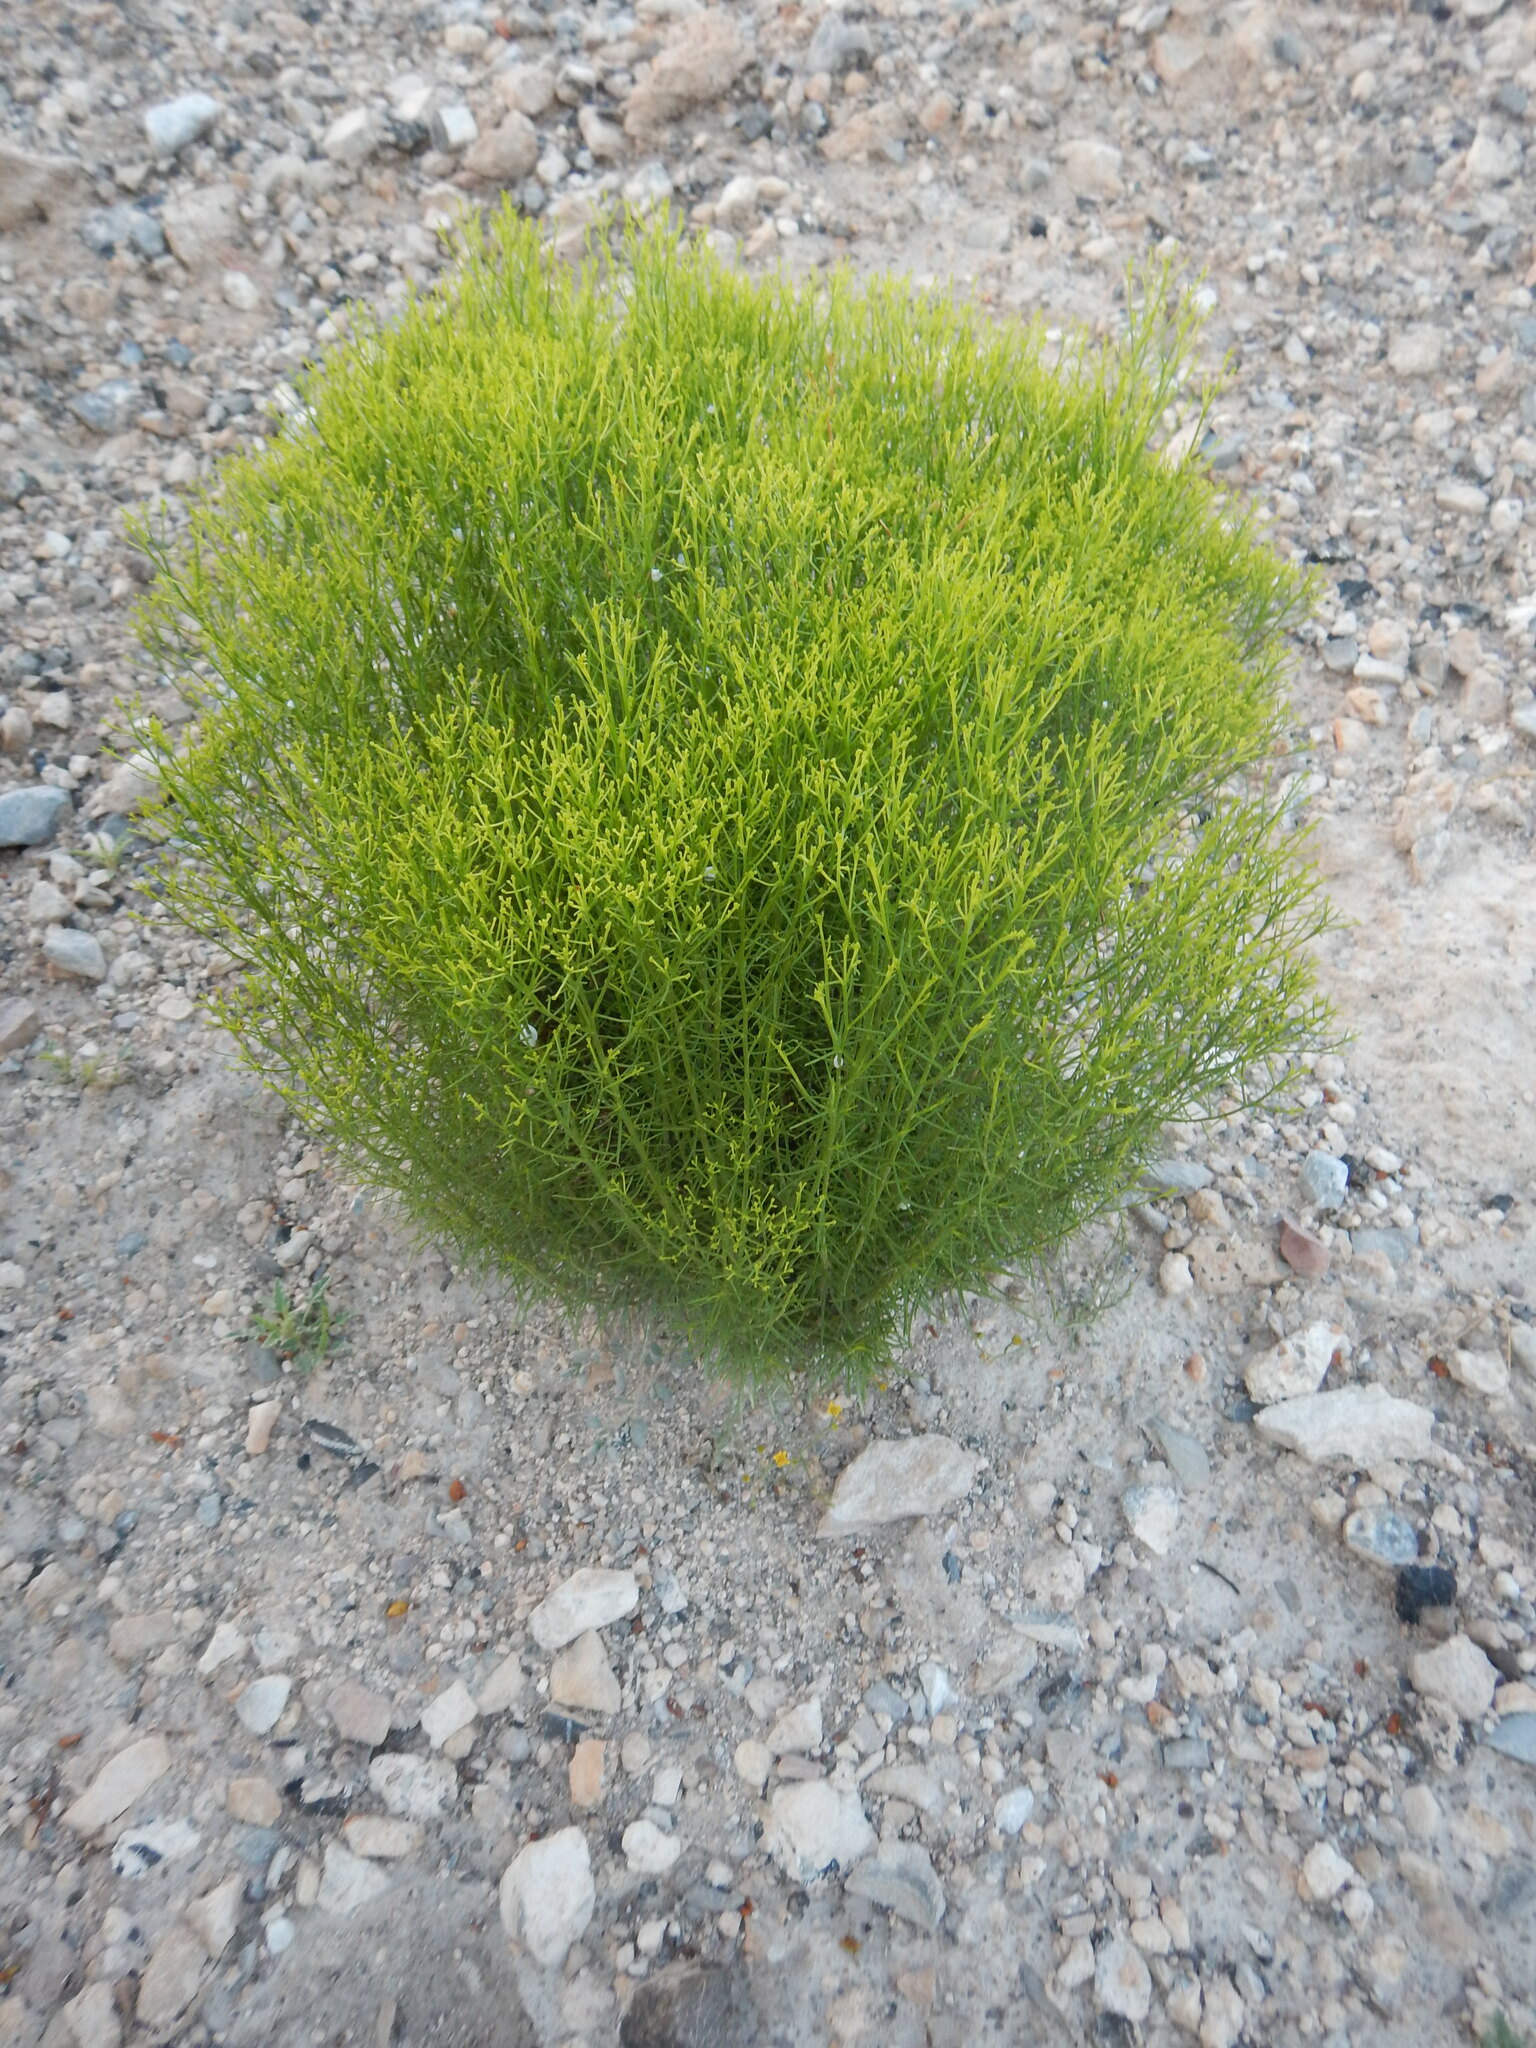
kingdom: Plantae
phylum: Tracheophyta
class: Magnoliopsida
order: Asterales
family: Asteraceae
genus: Gutierrezia
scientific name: Gutierrezia microcephala
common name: Thread snakeweed
